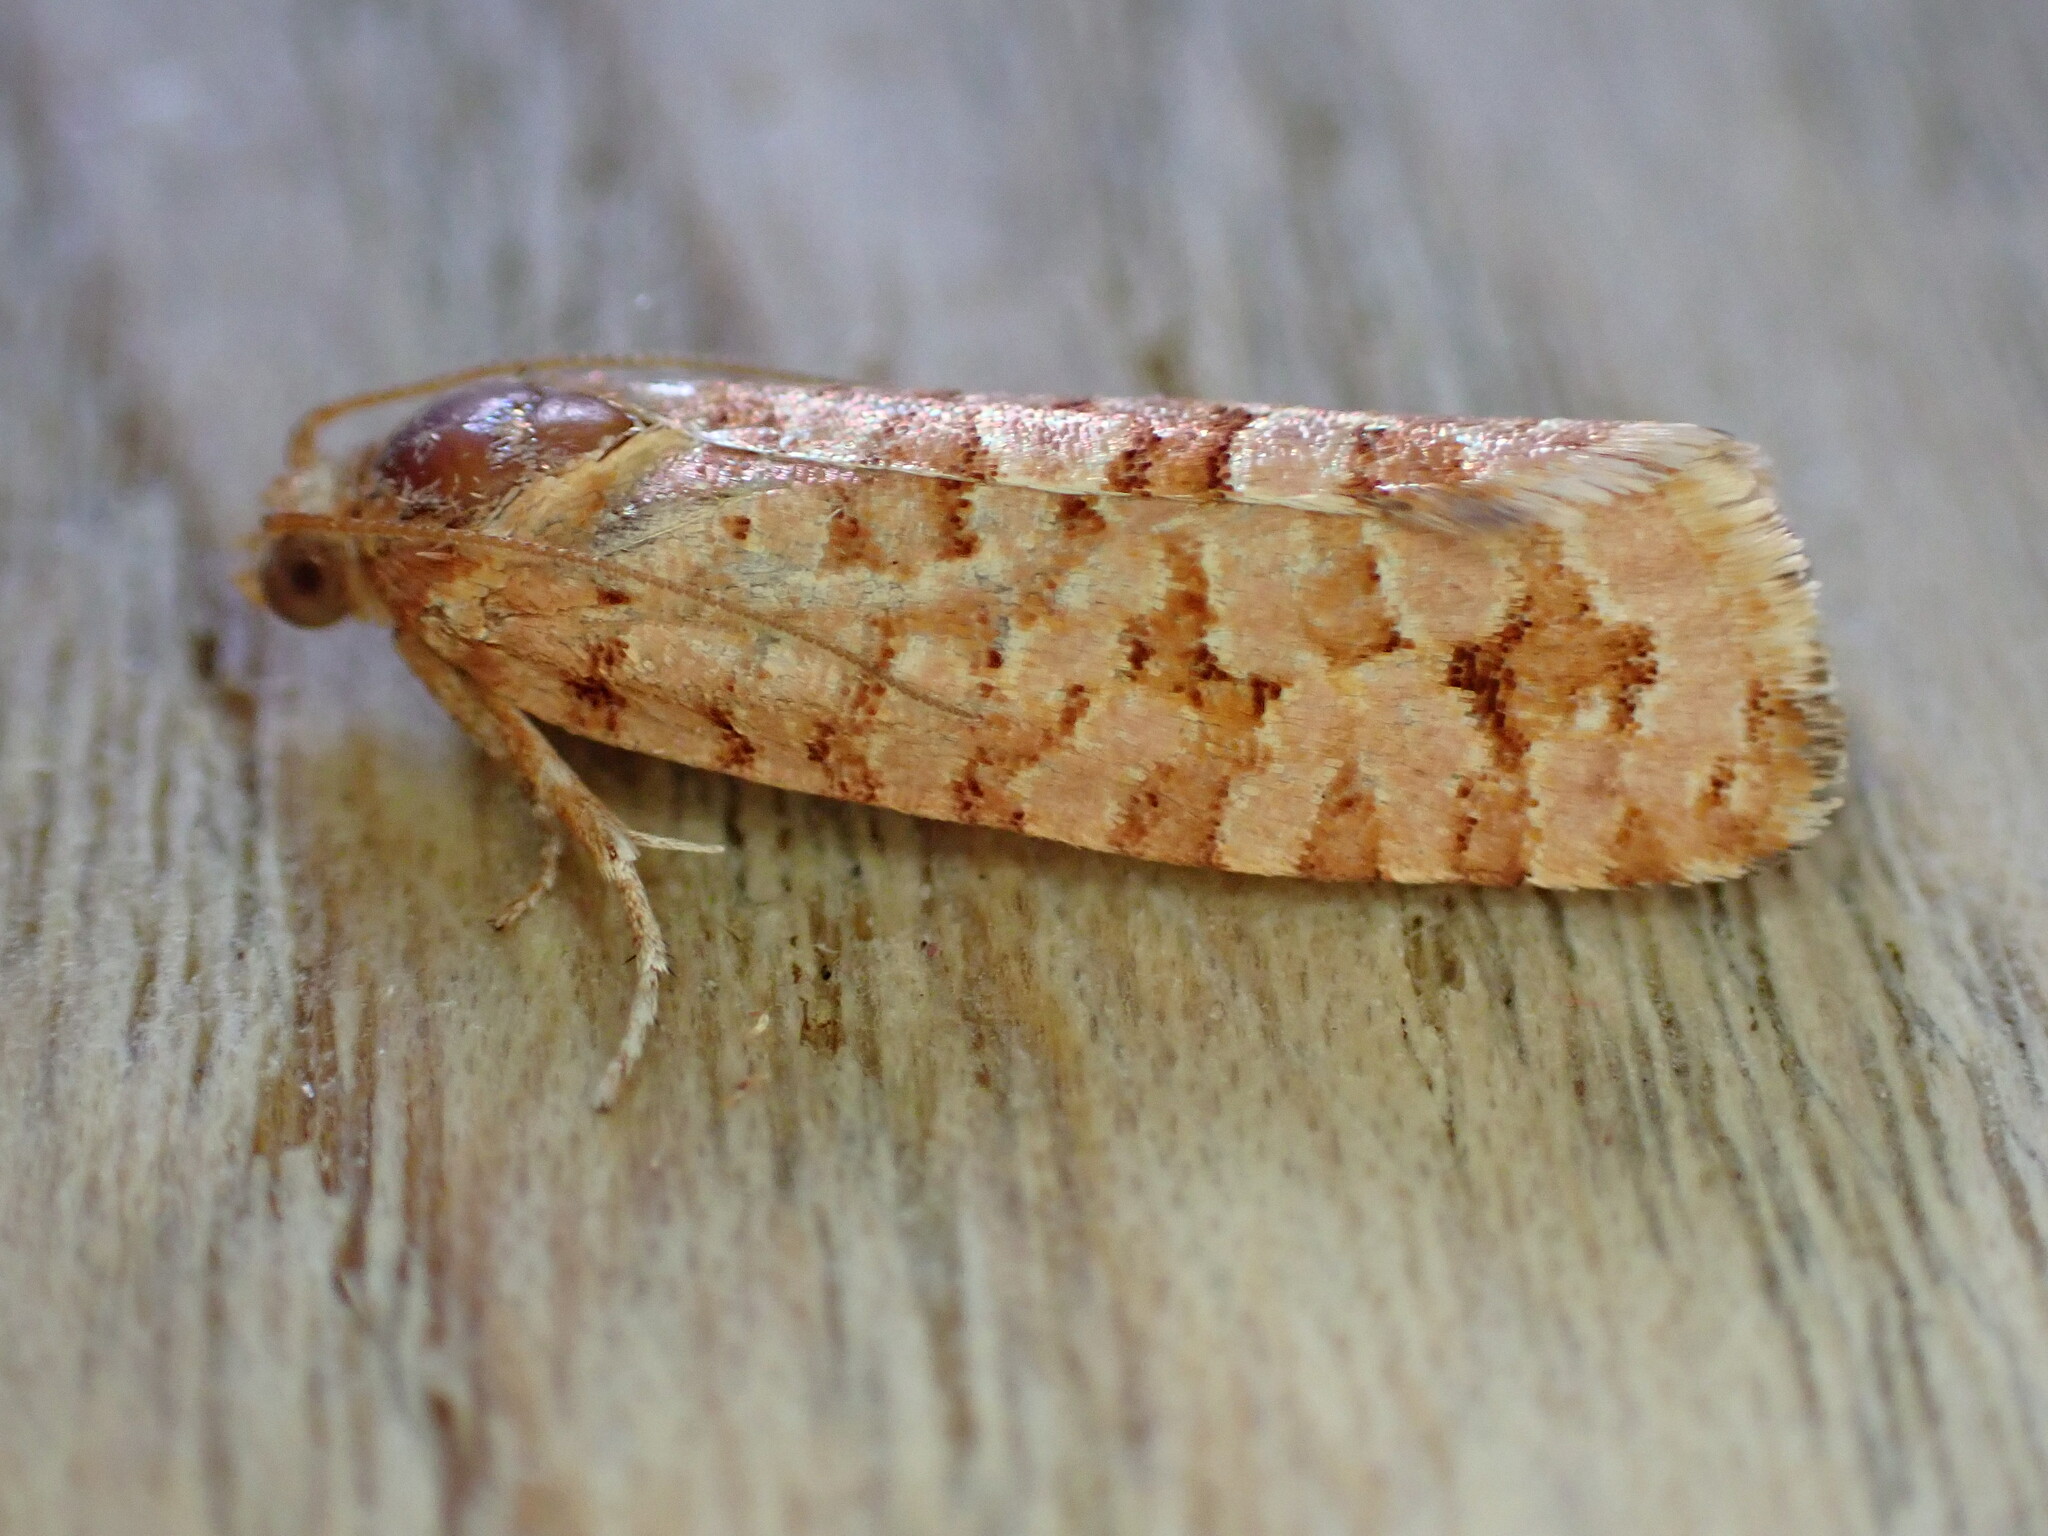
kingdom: Animalia
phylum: Arthropoda
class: Insecta
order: Lepidoptera
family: Tortricidae
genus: Lozotaeniodes
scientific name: Lozotaeniodes formosana
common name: Orange pine twist
